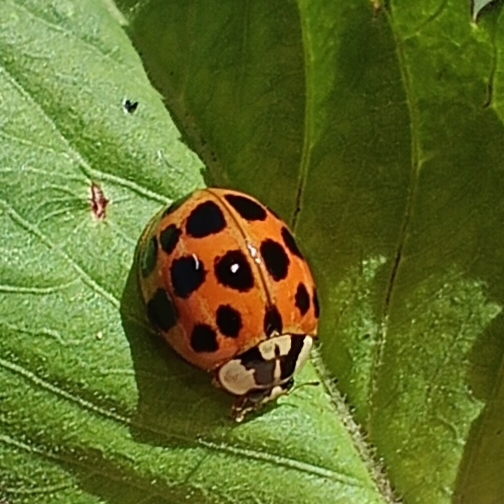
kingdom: Animalia
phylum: Arthropoda
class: Insecta
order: Coleoptera
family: Coccinellidae
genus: Harmonia
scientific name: Harmonia axyridis
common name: Harlequin ladybird
